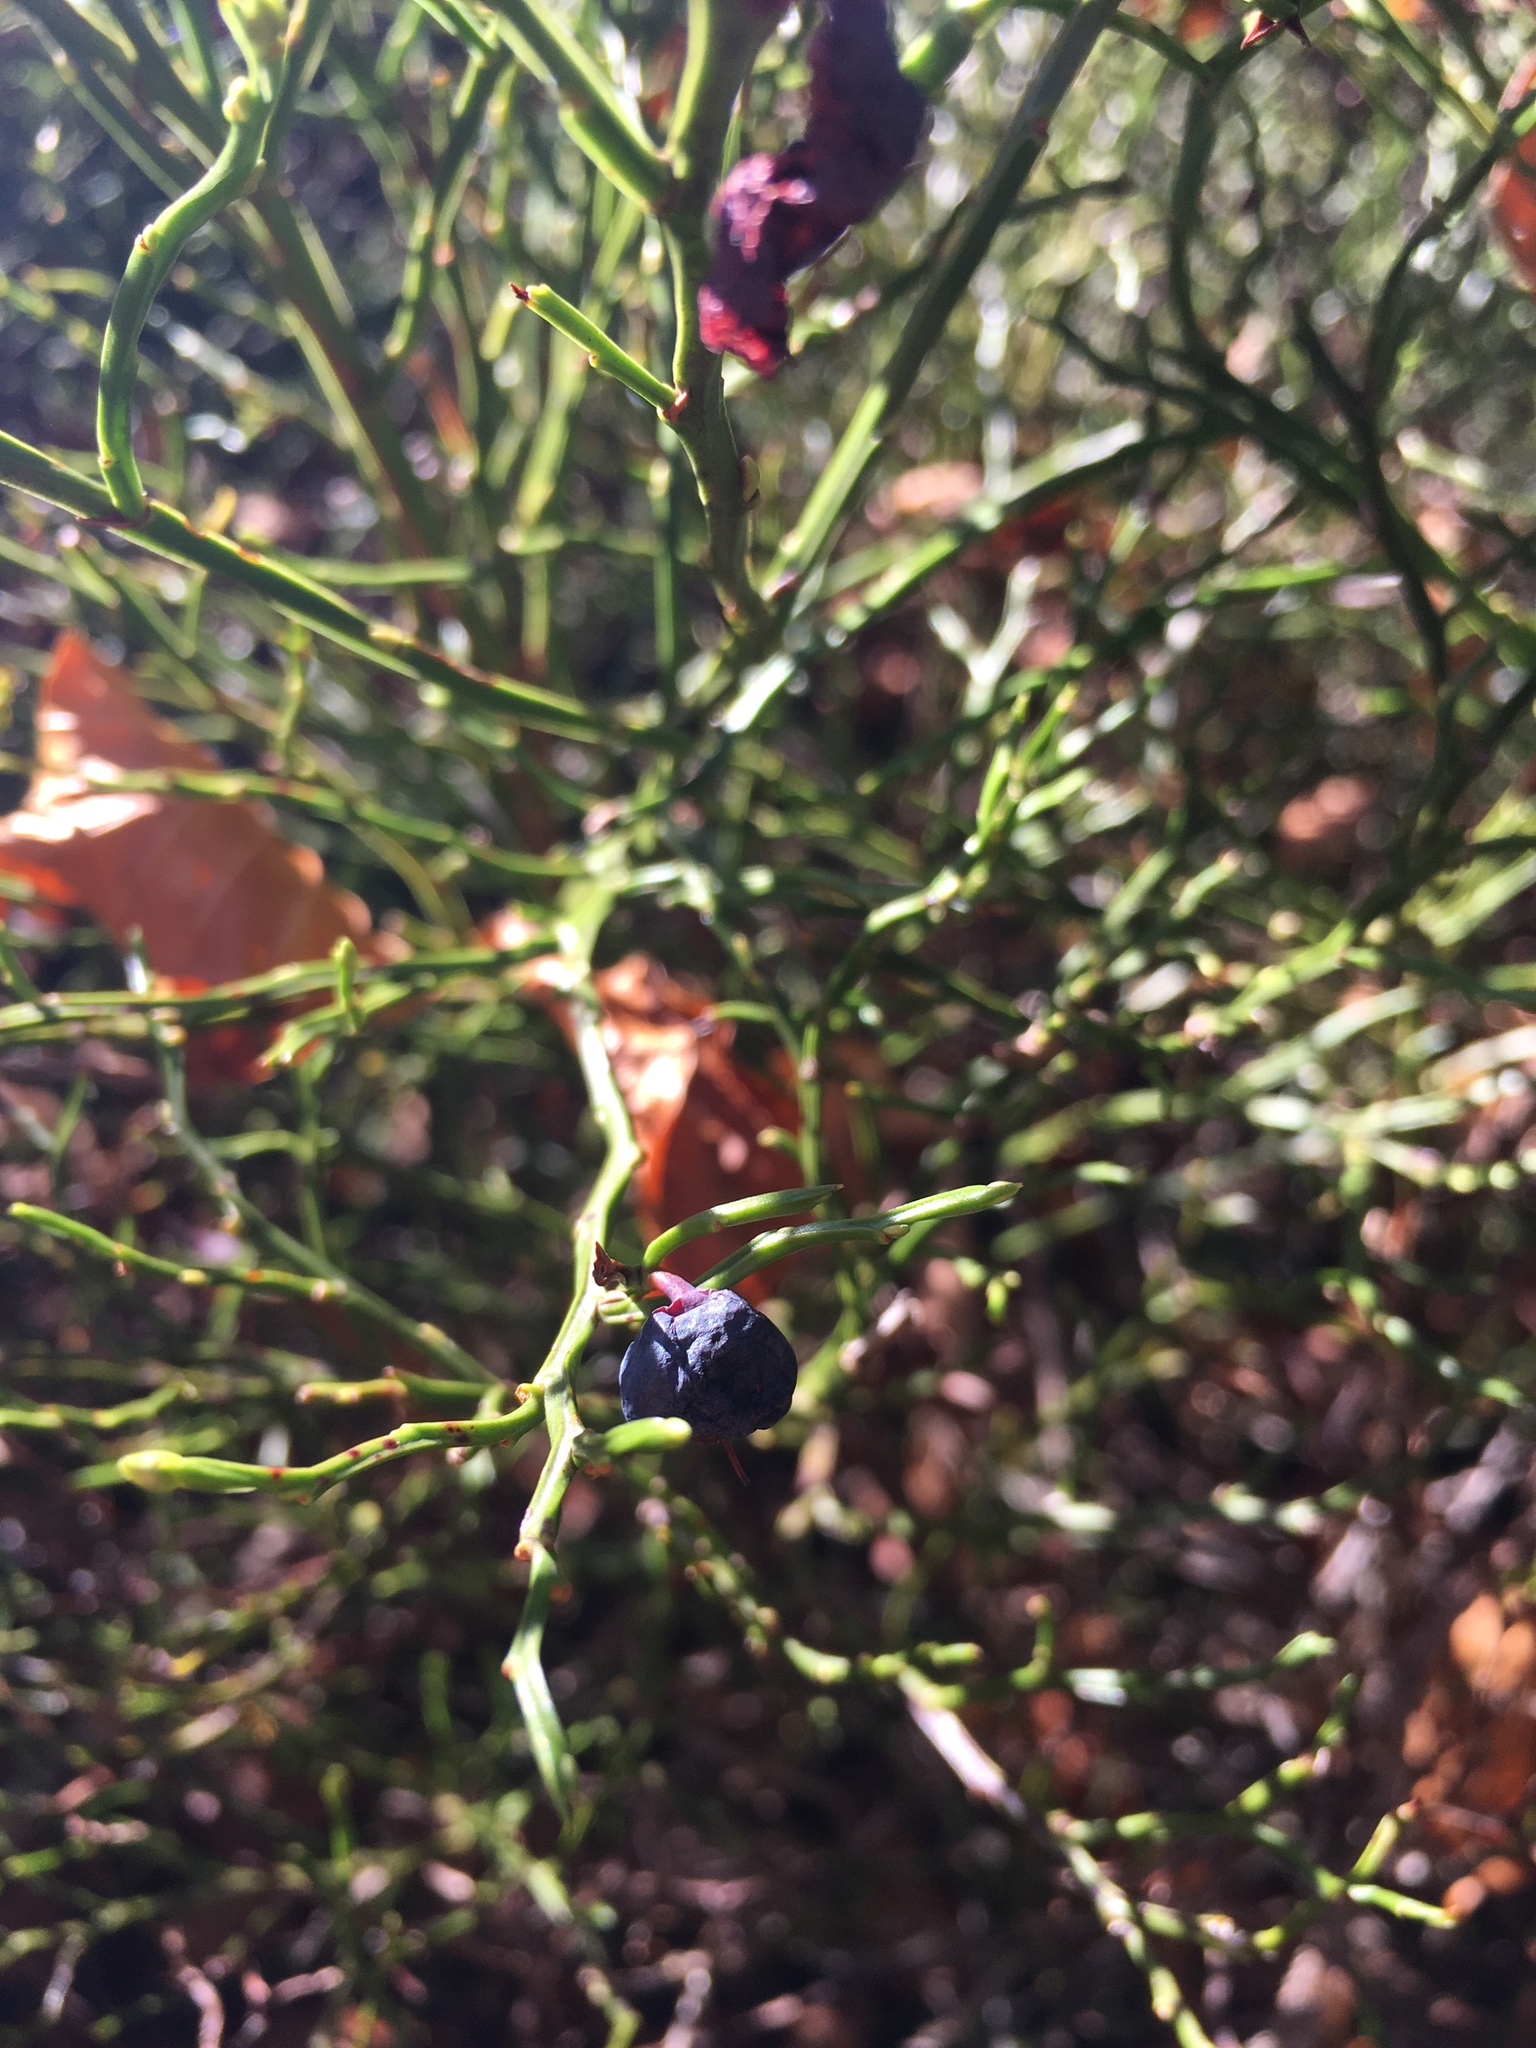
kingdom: Plantae
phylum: Tracheophyta
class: Magnoliopsida
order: Ericales
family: Ericaceae
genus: Vaccinium
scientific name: Vaccinium myrtillus
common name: Bilberry
